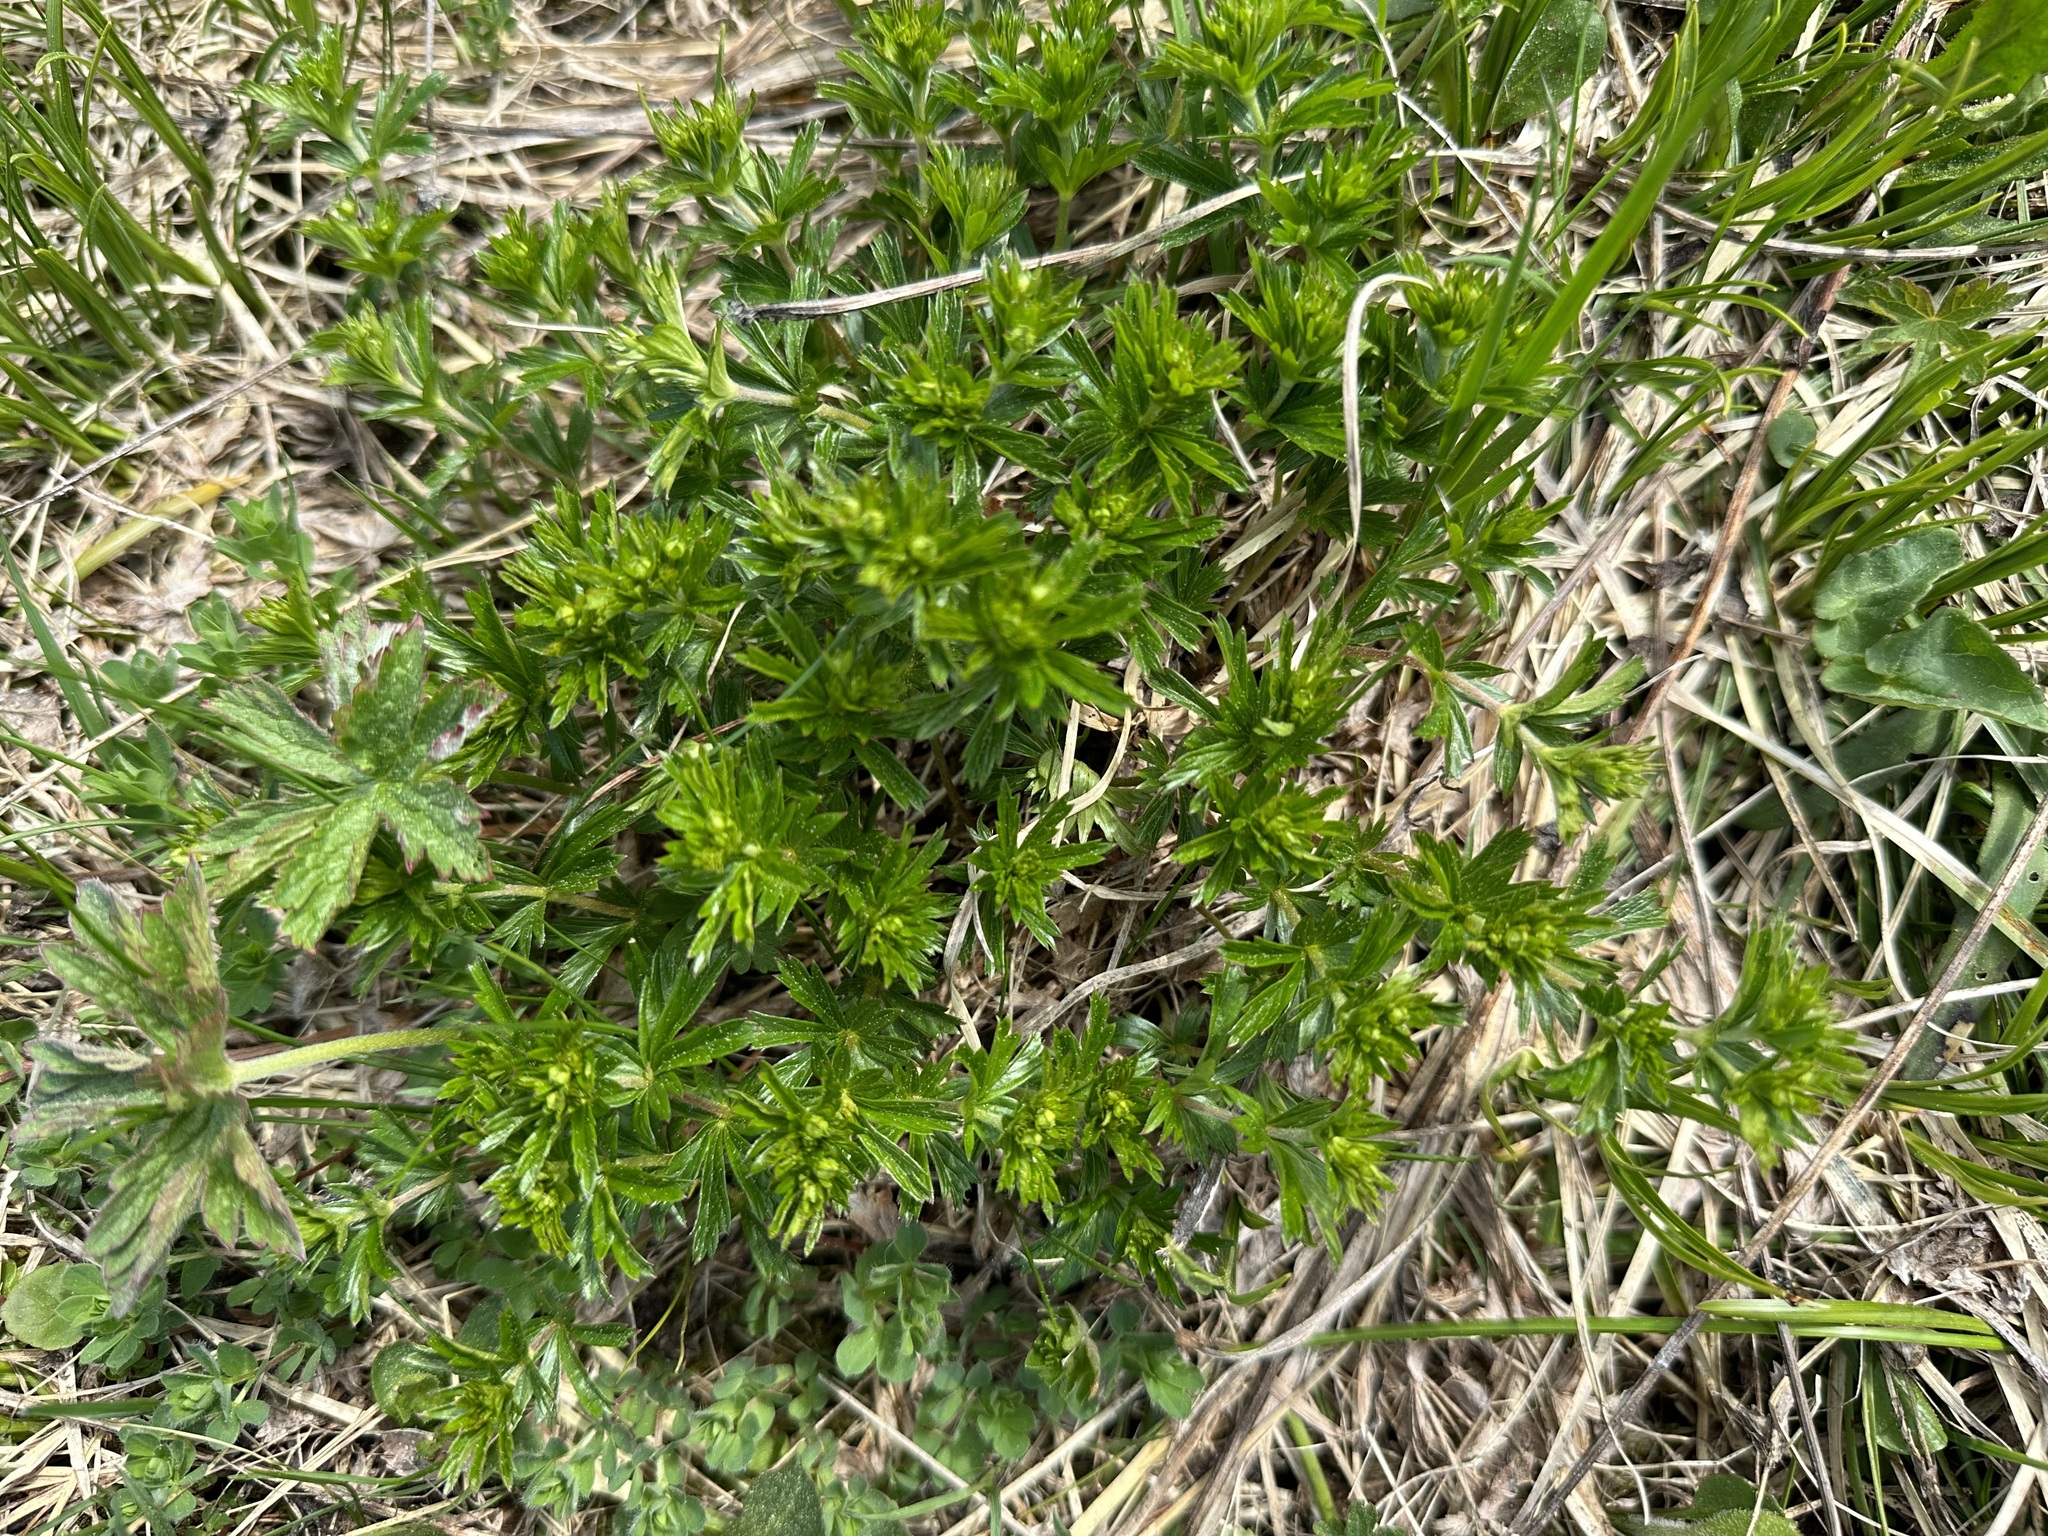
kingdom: Plantae
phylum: Tracheophyta
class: Magnoliopsida
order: Rosales
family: Rosaceae
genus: Potentilla
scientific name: Potentilla erecta
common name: Tormentil
